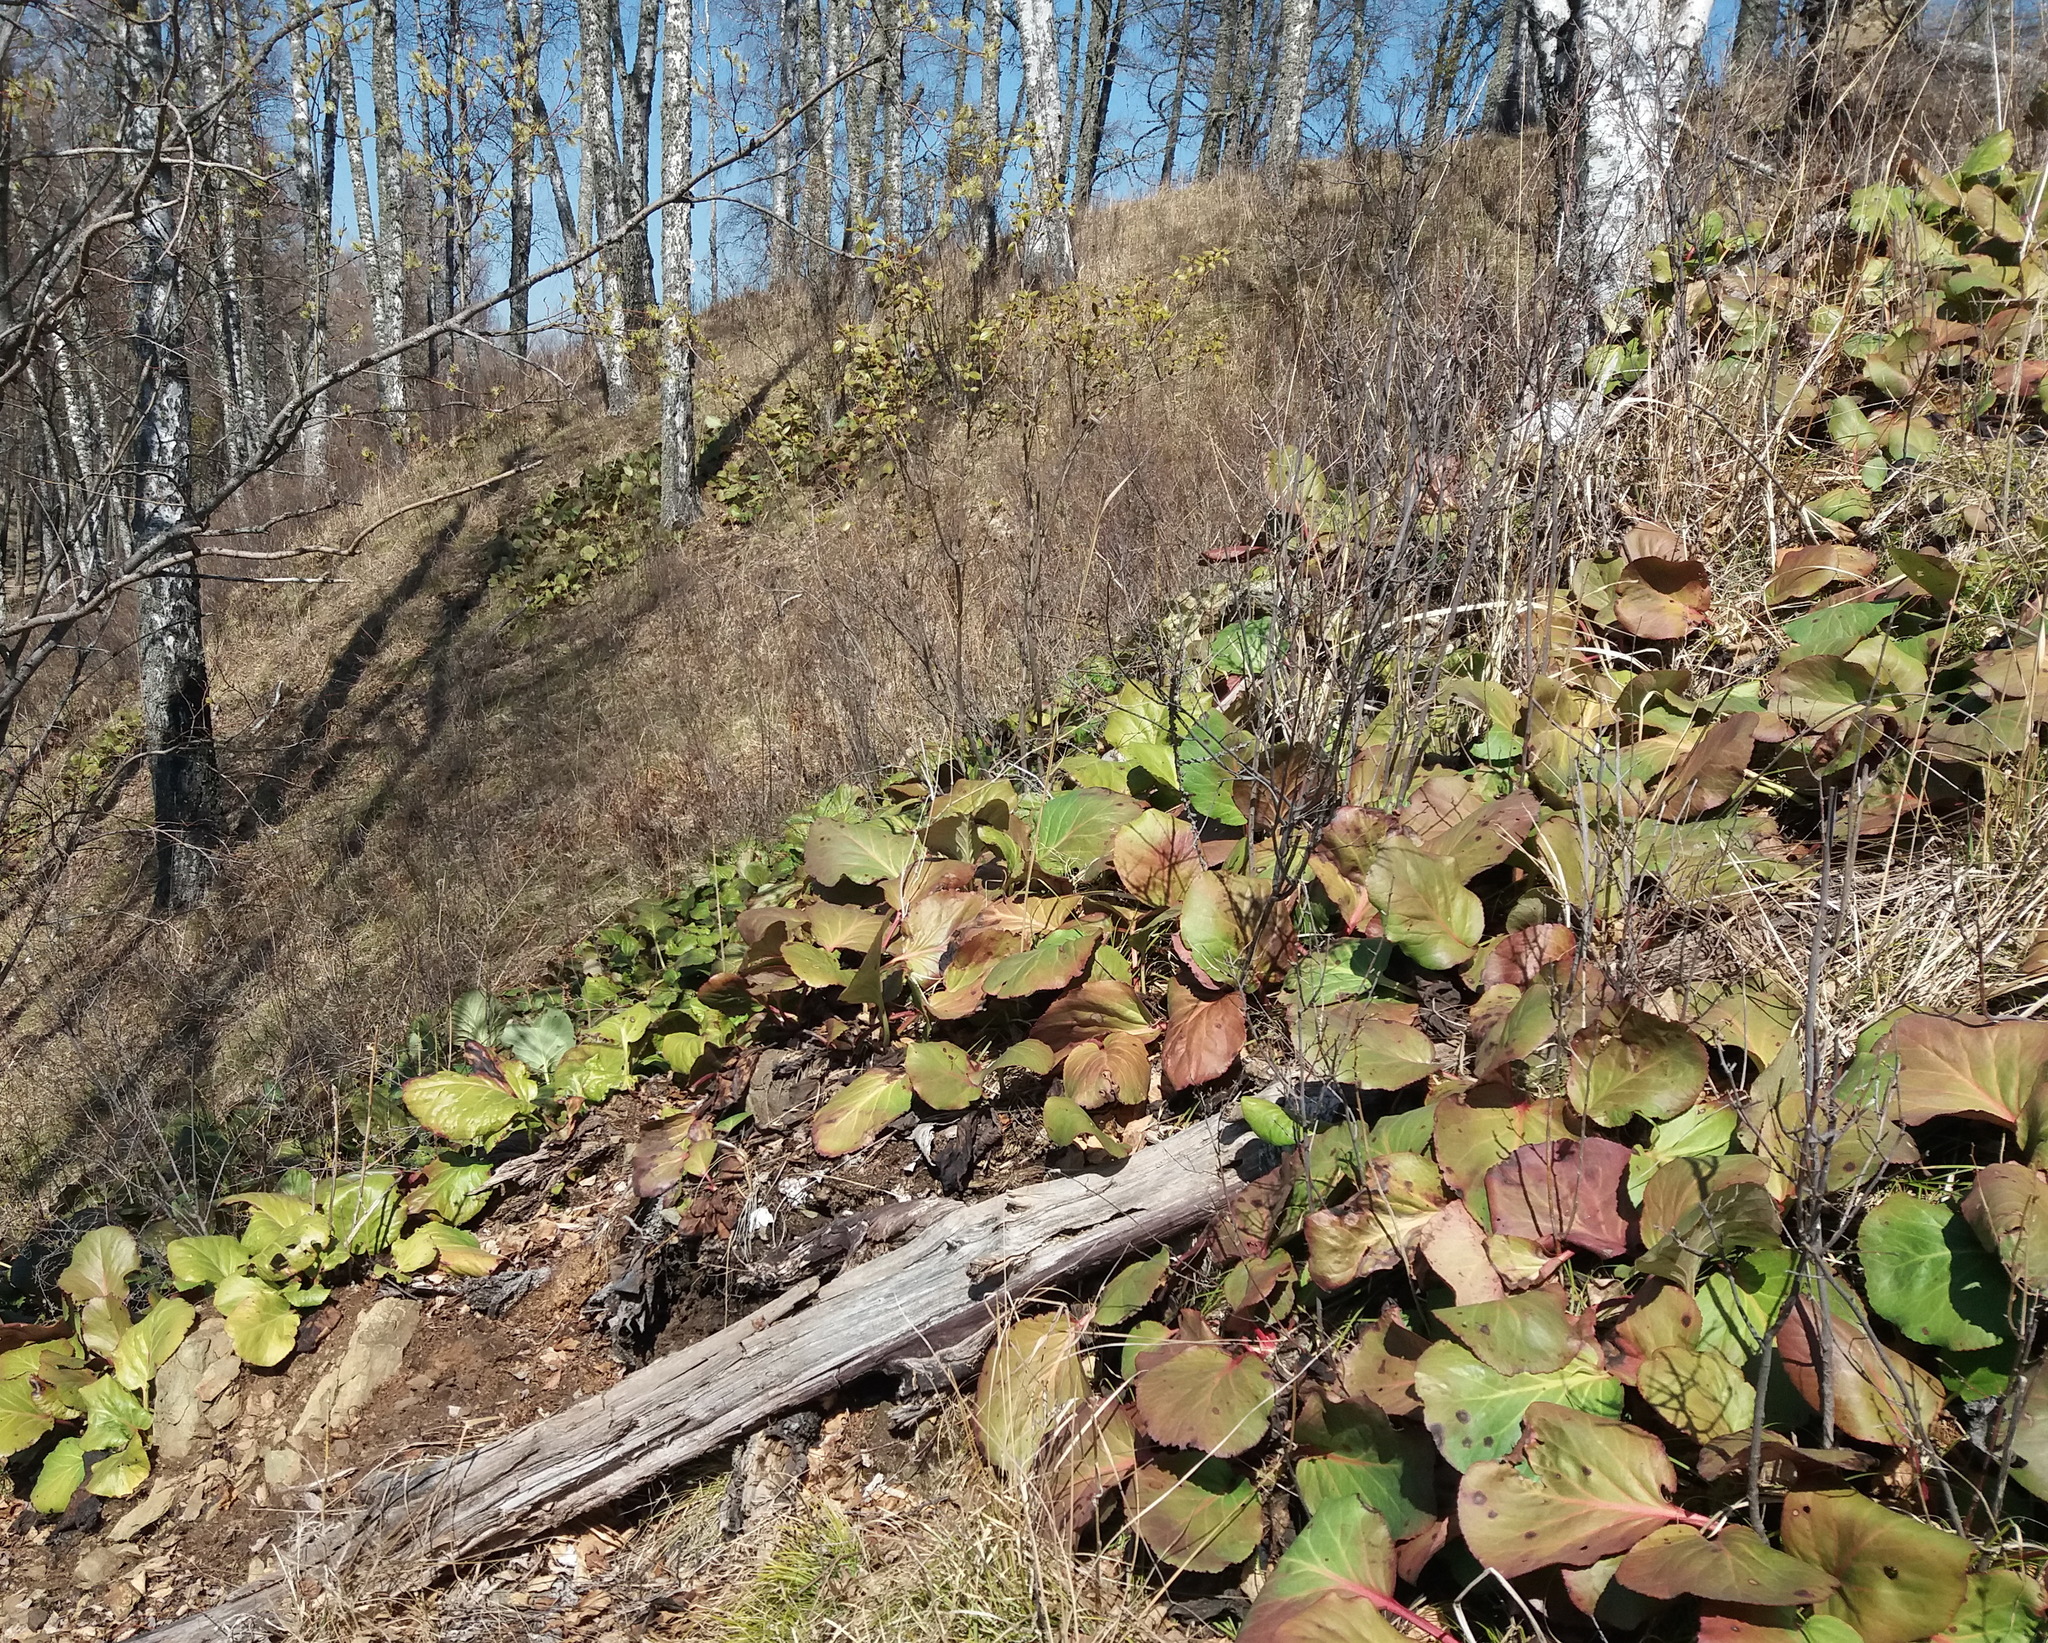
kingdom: Plantae
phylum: Tracheophyta
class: Magnoliopsida
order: Saxifragales
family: Saxifragaceae
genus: Bergenia
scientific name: Bergenia crassifolia
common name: Elephant-ears
